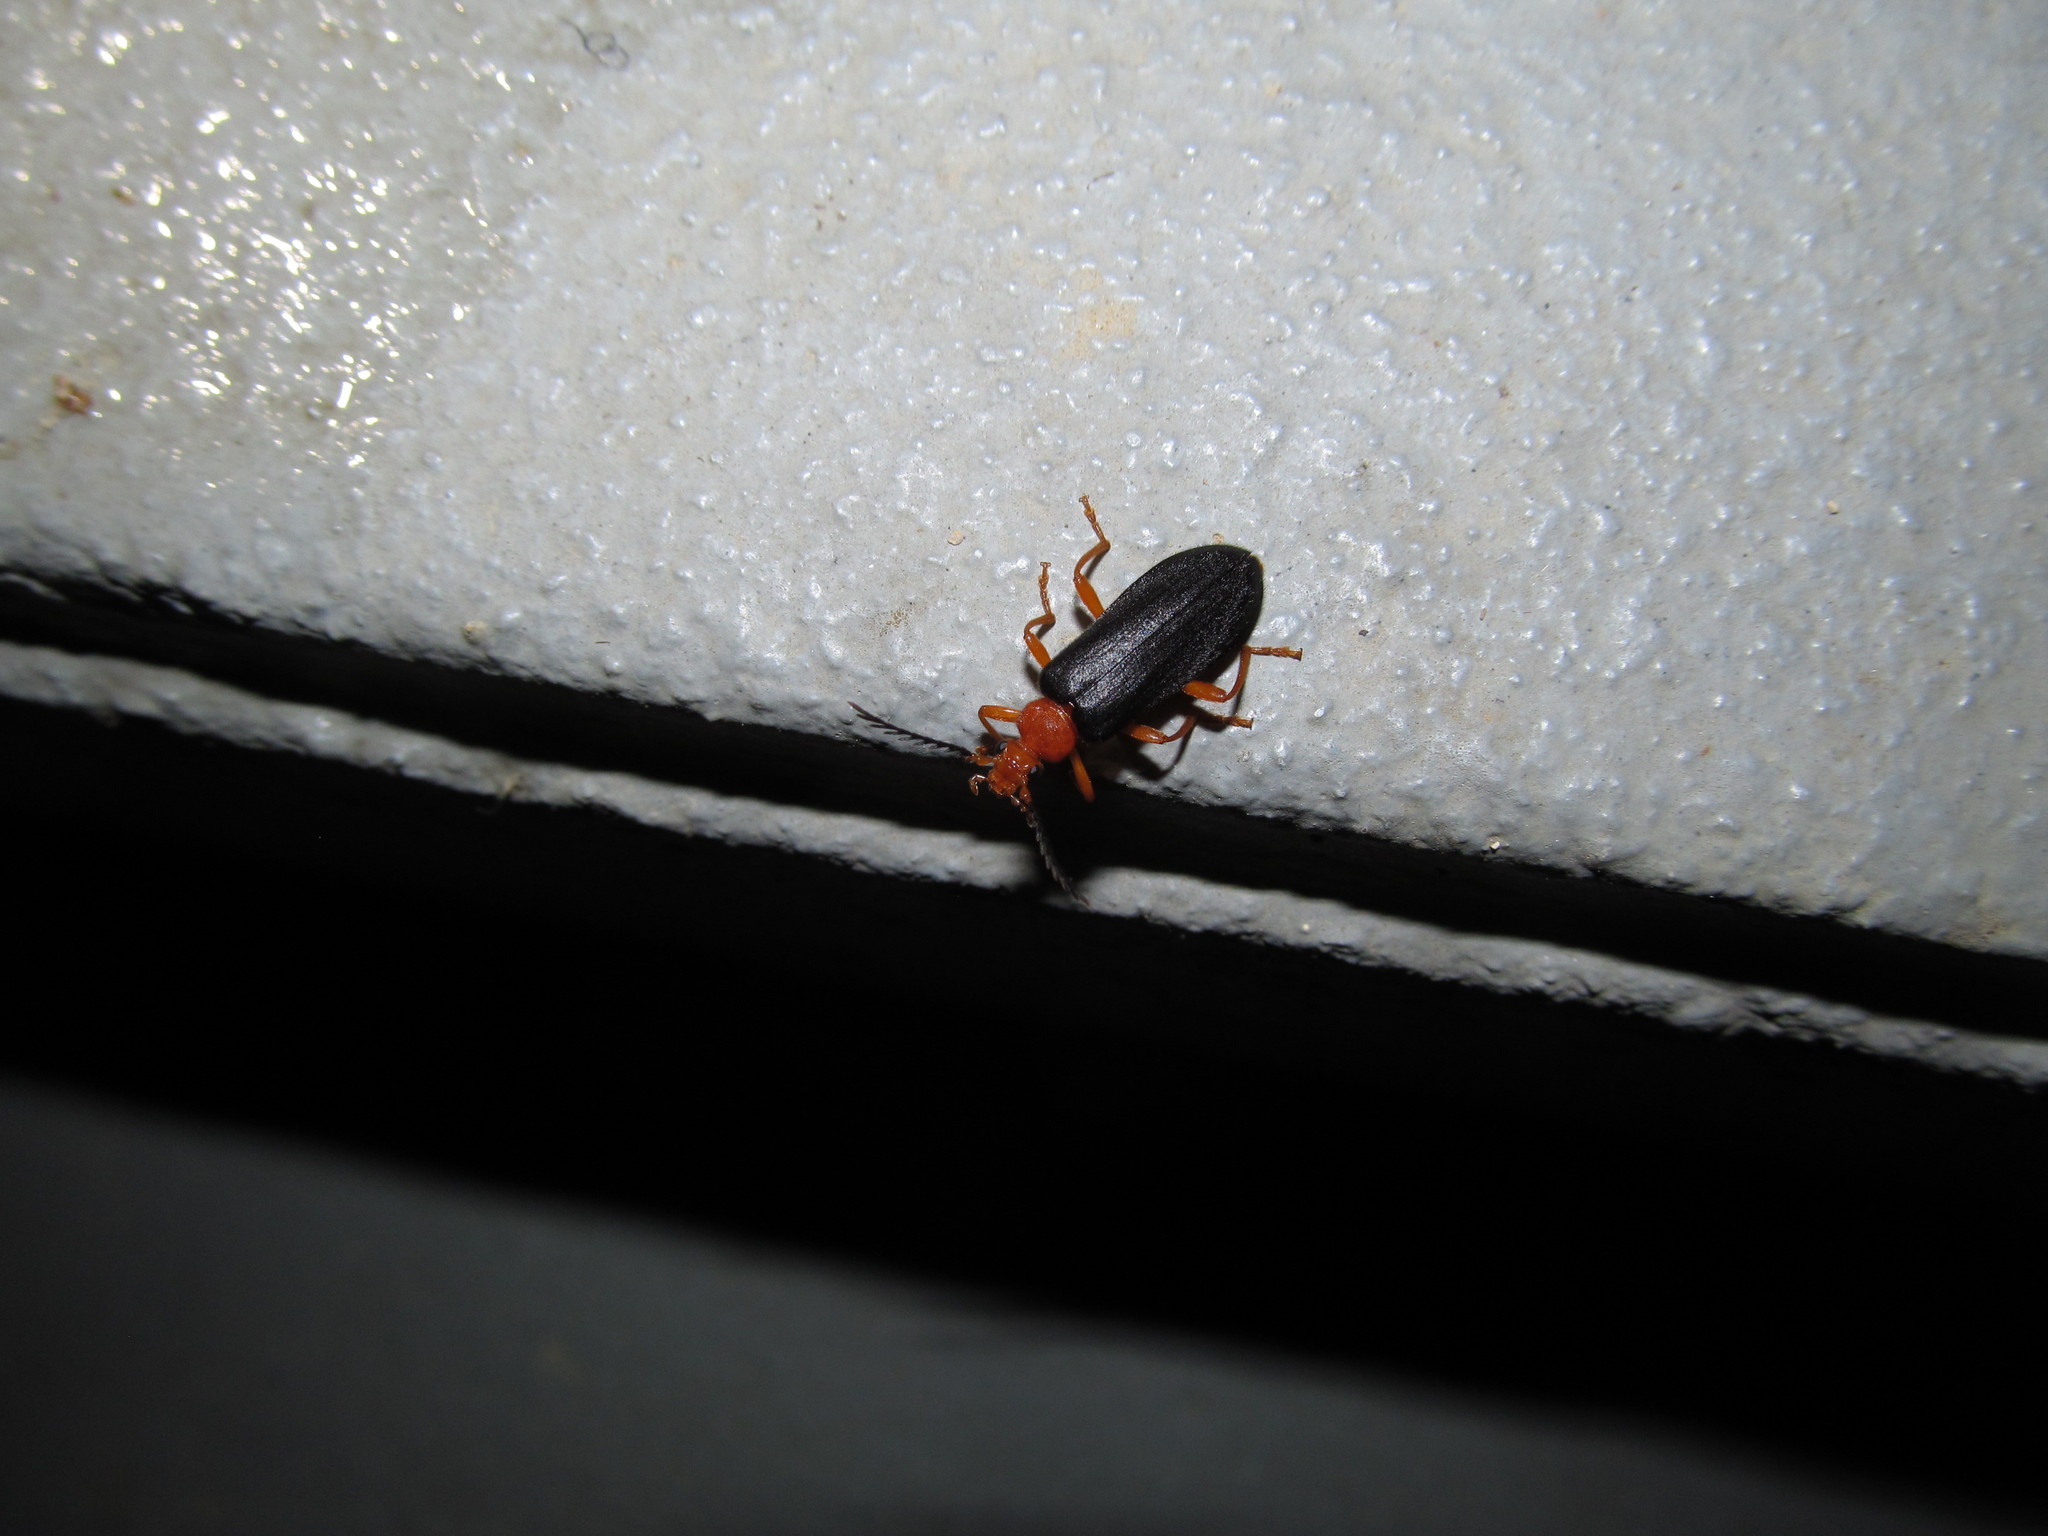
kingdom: Animalia
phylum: Arthropoda
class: Insecta
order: Coleoptera
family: Pyrochroidae
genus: Neopyrochroa
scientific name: Neopyrochroa flabellata
